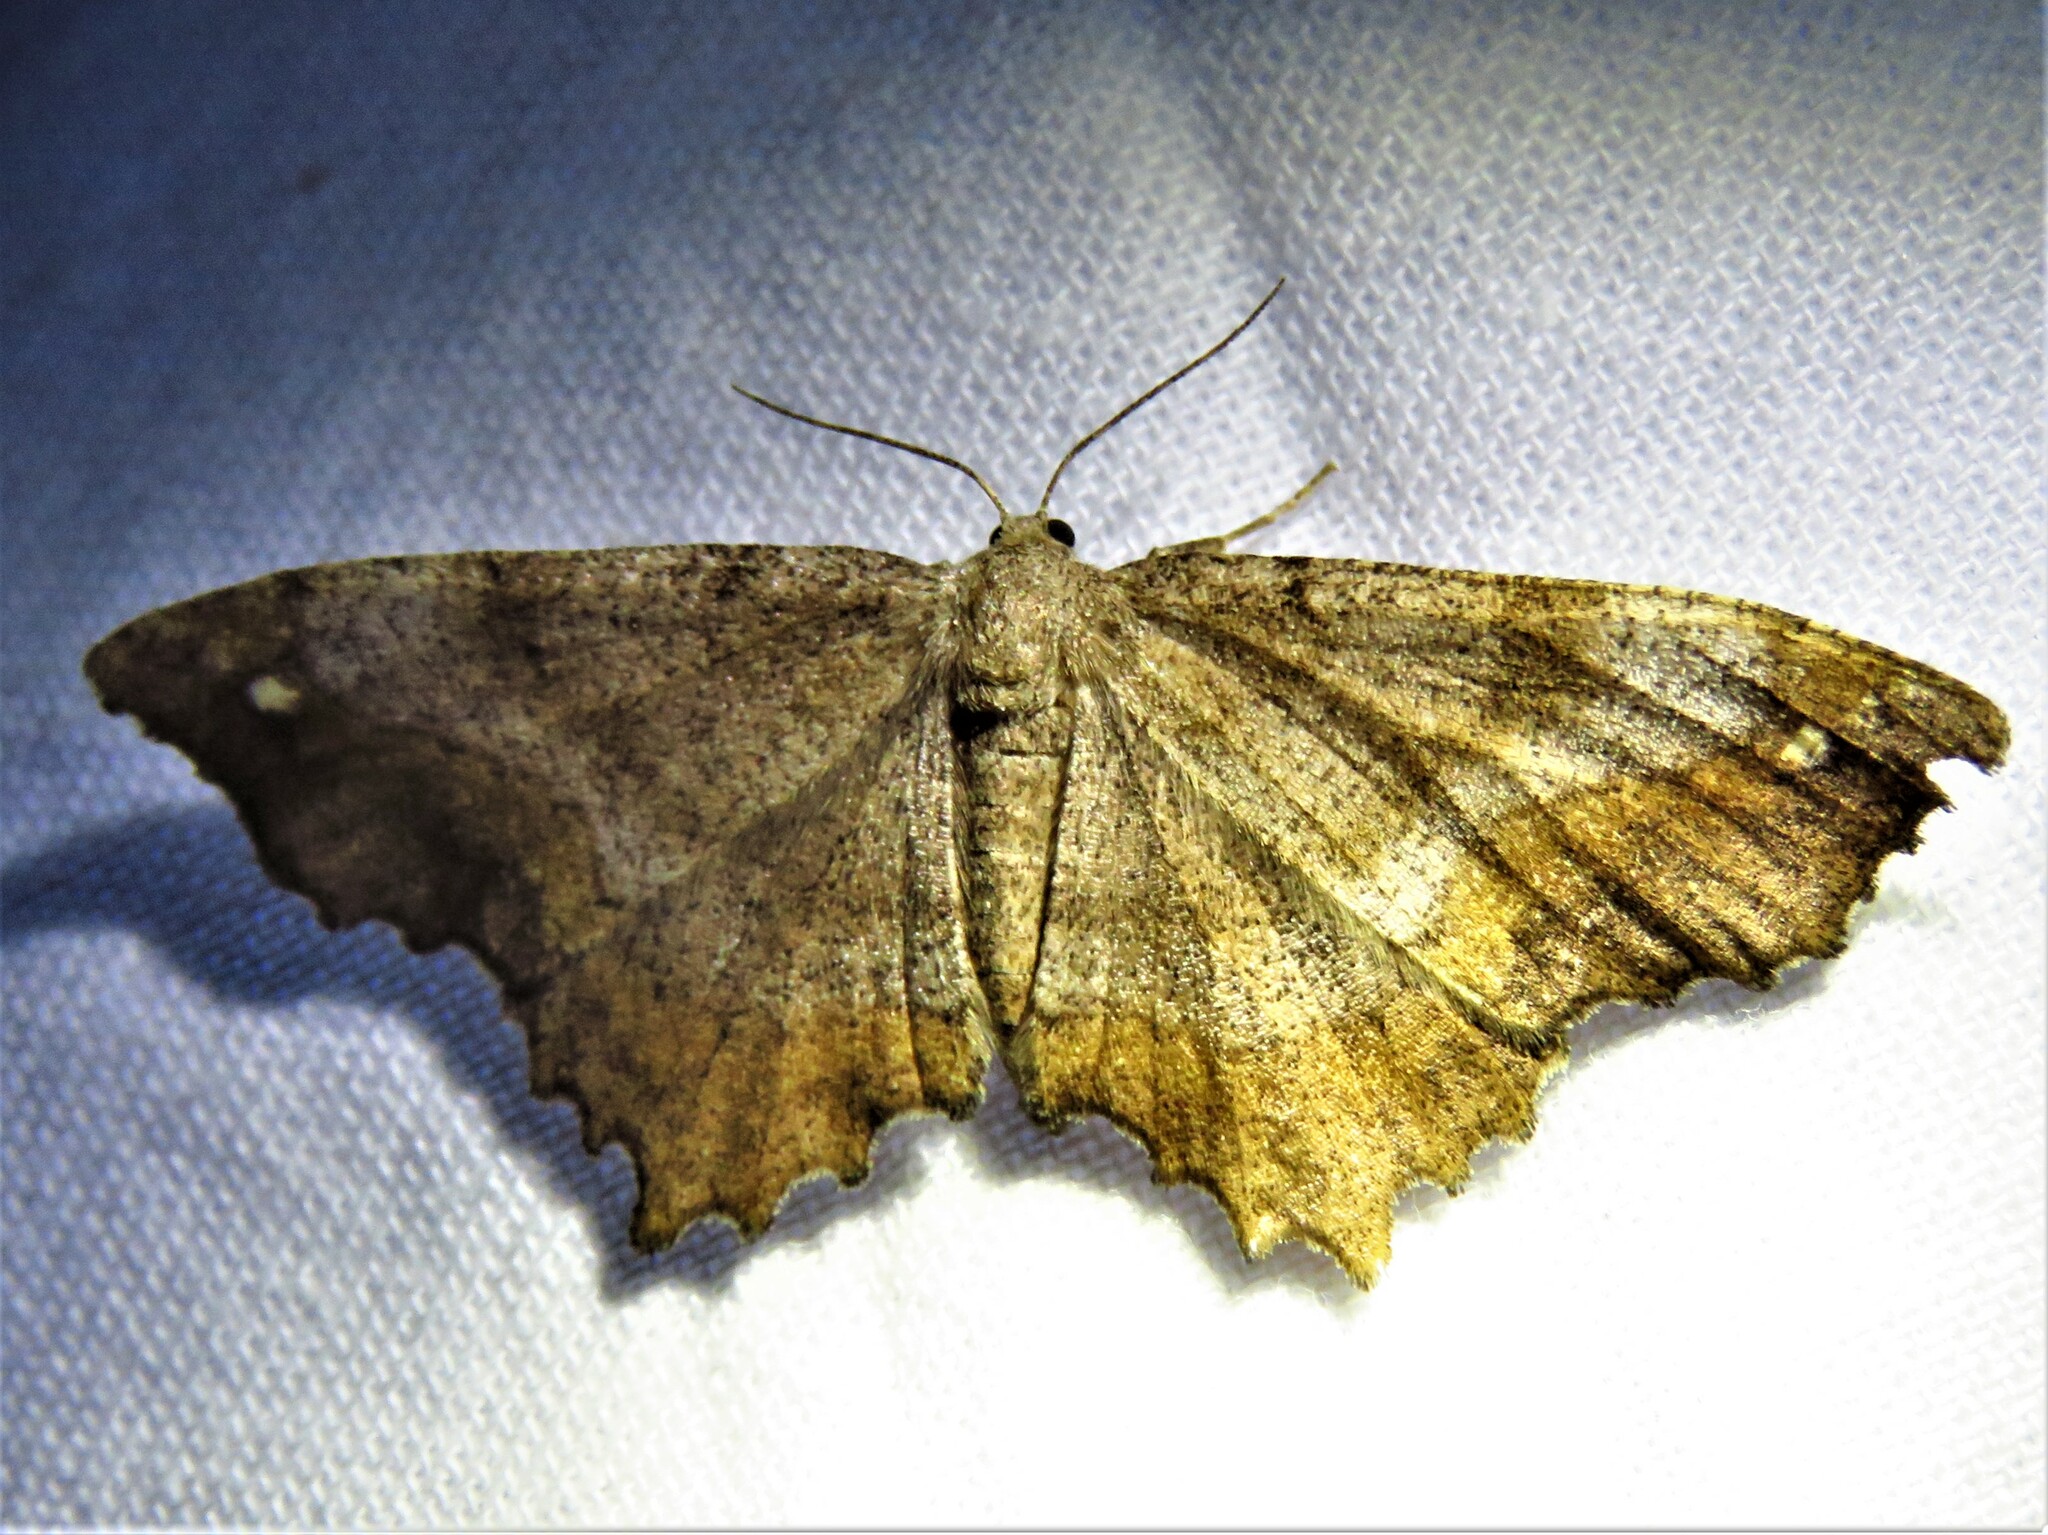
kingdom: Animalia
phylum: Arthropoda
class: Insecta
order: Lepidoptera
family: Geometridae
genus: Hypagyrtis
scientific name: Hypagyrtis unipunctata
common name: One-spotted variant
